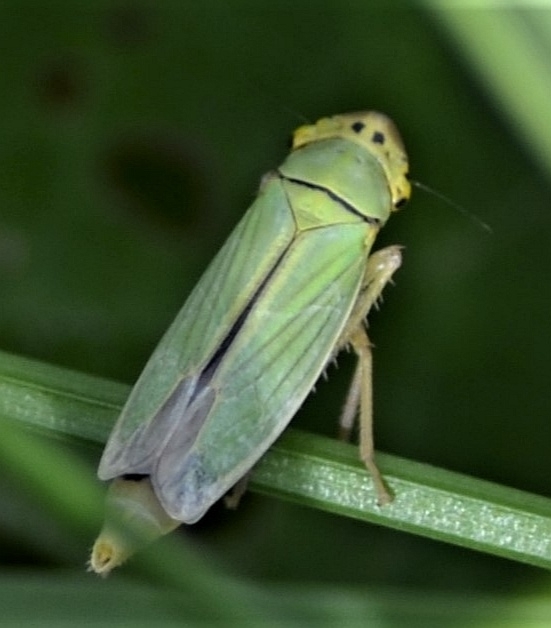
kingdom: Animalia
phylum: Arthropoda
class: Insecta
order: Hemiptera
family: Cicadellidae
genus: Cicadella
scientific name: Cicadella viridis
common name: Leafhopper
